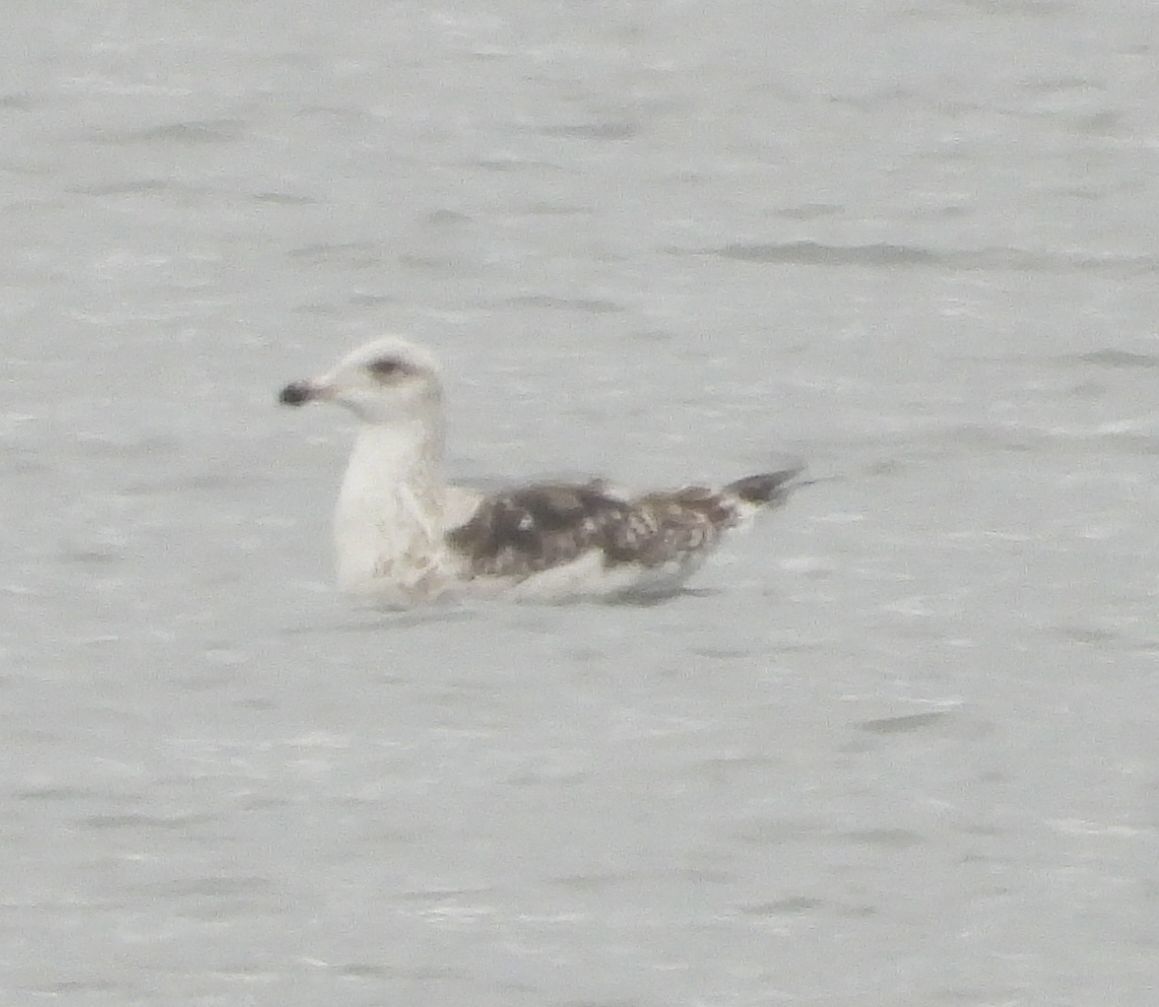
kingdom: Animalia
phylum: Chordata
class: Aves
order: Charadriiformes
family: Laridae
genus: Larus
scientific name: Larus marinus
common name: Great black-backed gull
